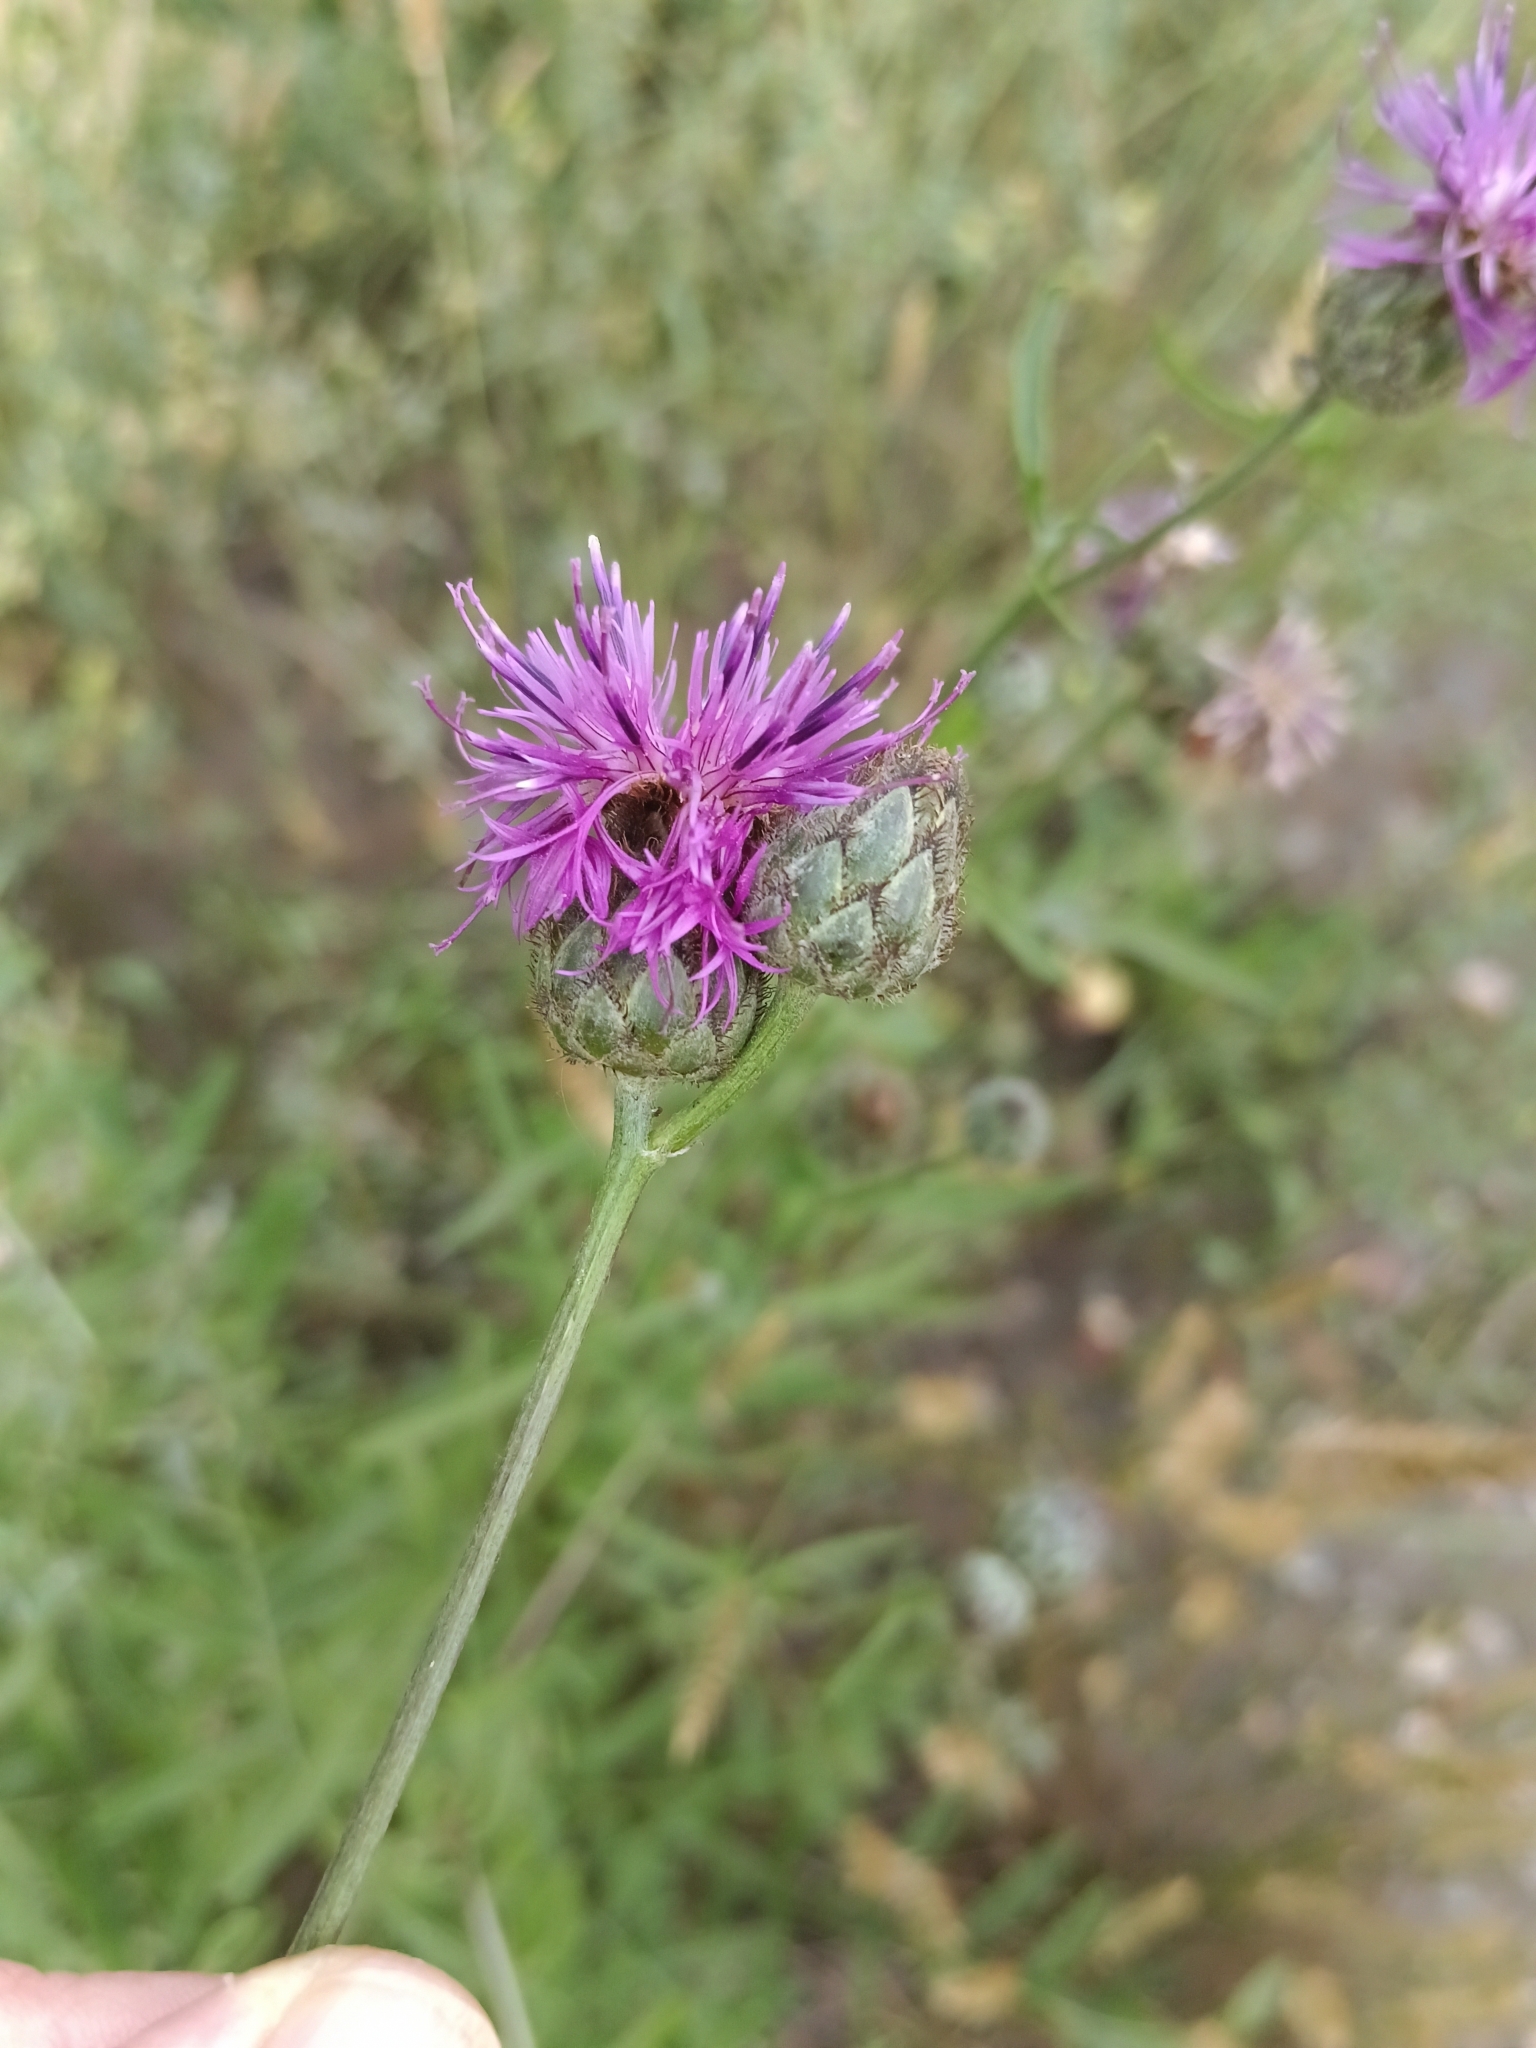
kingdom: Plantae
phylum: Tracheophyta
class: Magnoliopsida
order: Asterales
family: Asteraceae
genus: Centaurea
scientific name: Centaurea scabiosa
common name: Greater knapweed
